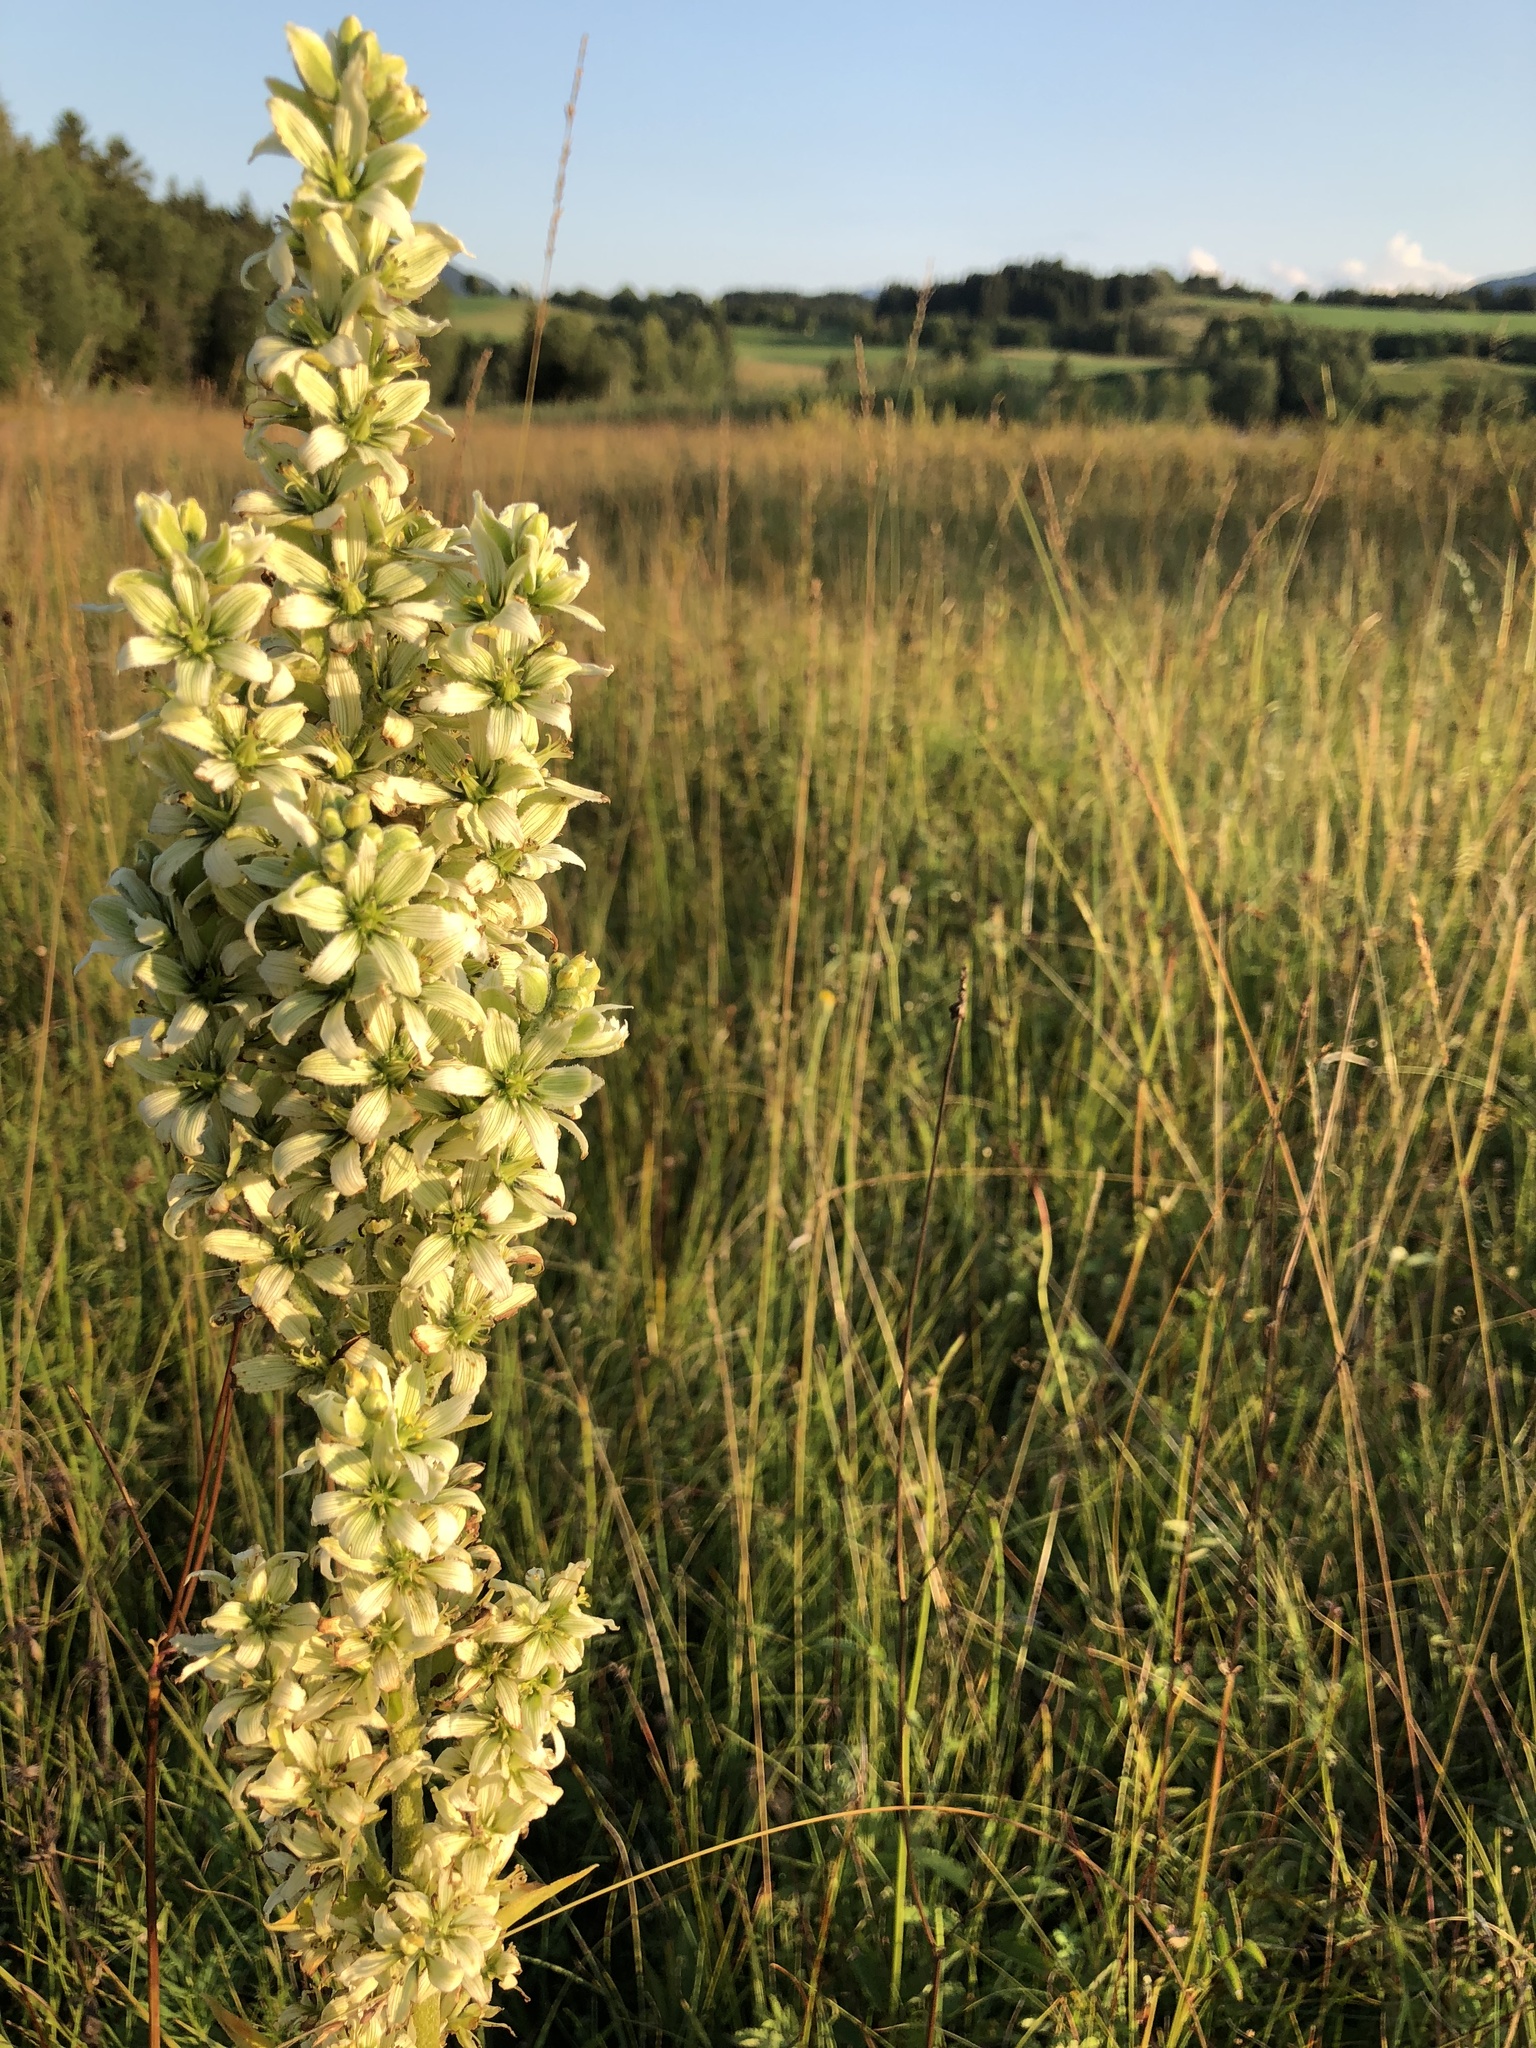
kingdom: Plantae
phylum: Tracheophyta
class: Liliopsida
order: Liliales
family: Melanthiaceae
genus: Veratrum
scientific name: Veratrum album
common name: White veratrum
